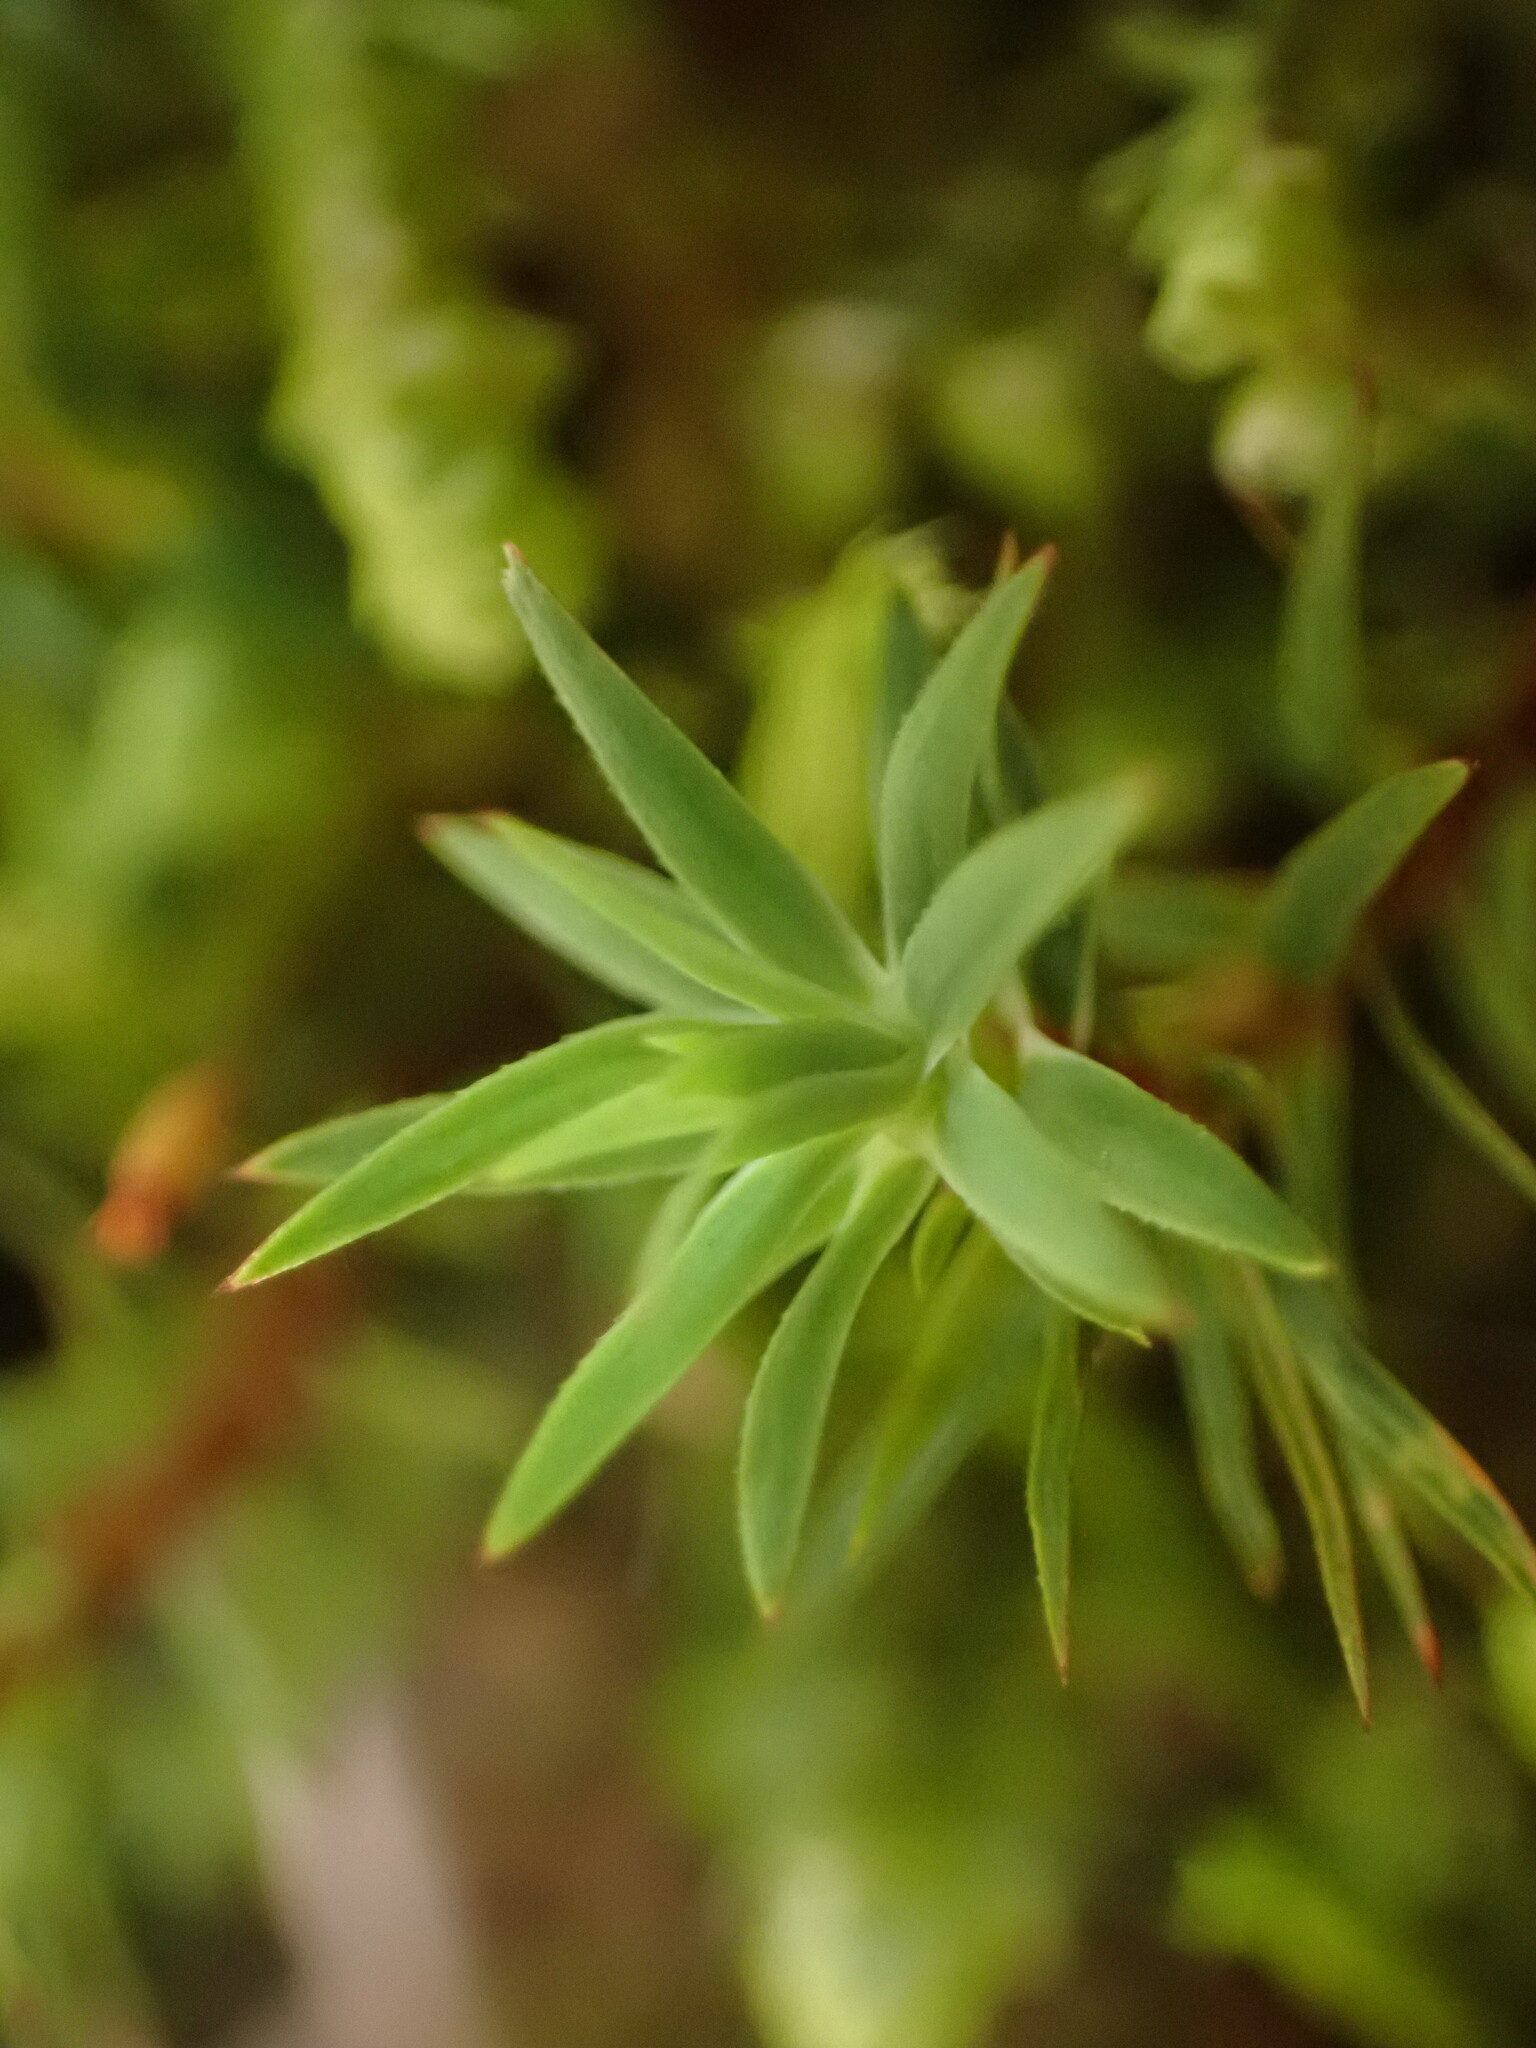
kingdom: Plantae
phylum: Bryophyta
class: Polytrichopsida
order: Polytrichales
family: Polytrichaceae
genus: Pogonatum
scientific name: Pogonatum urnigerum
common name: Urn hair moss
